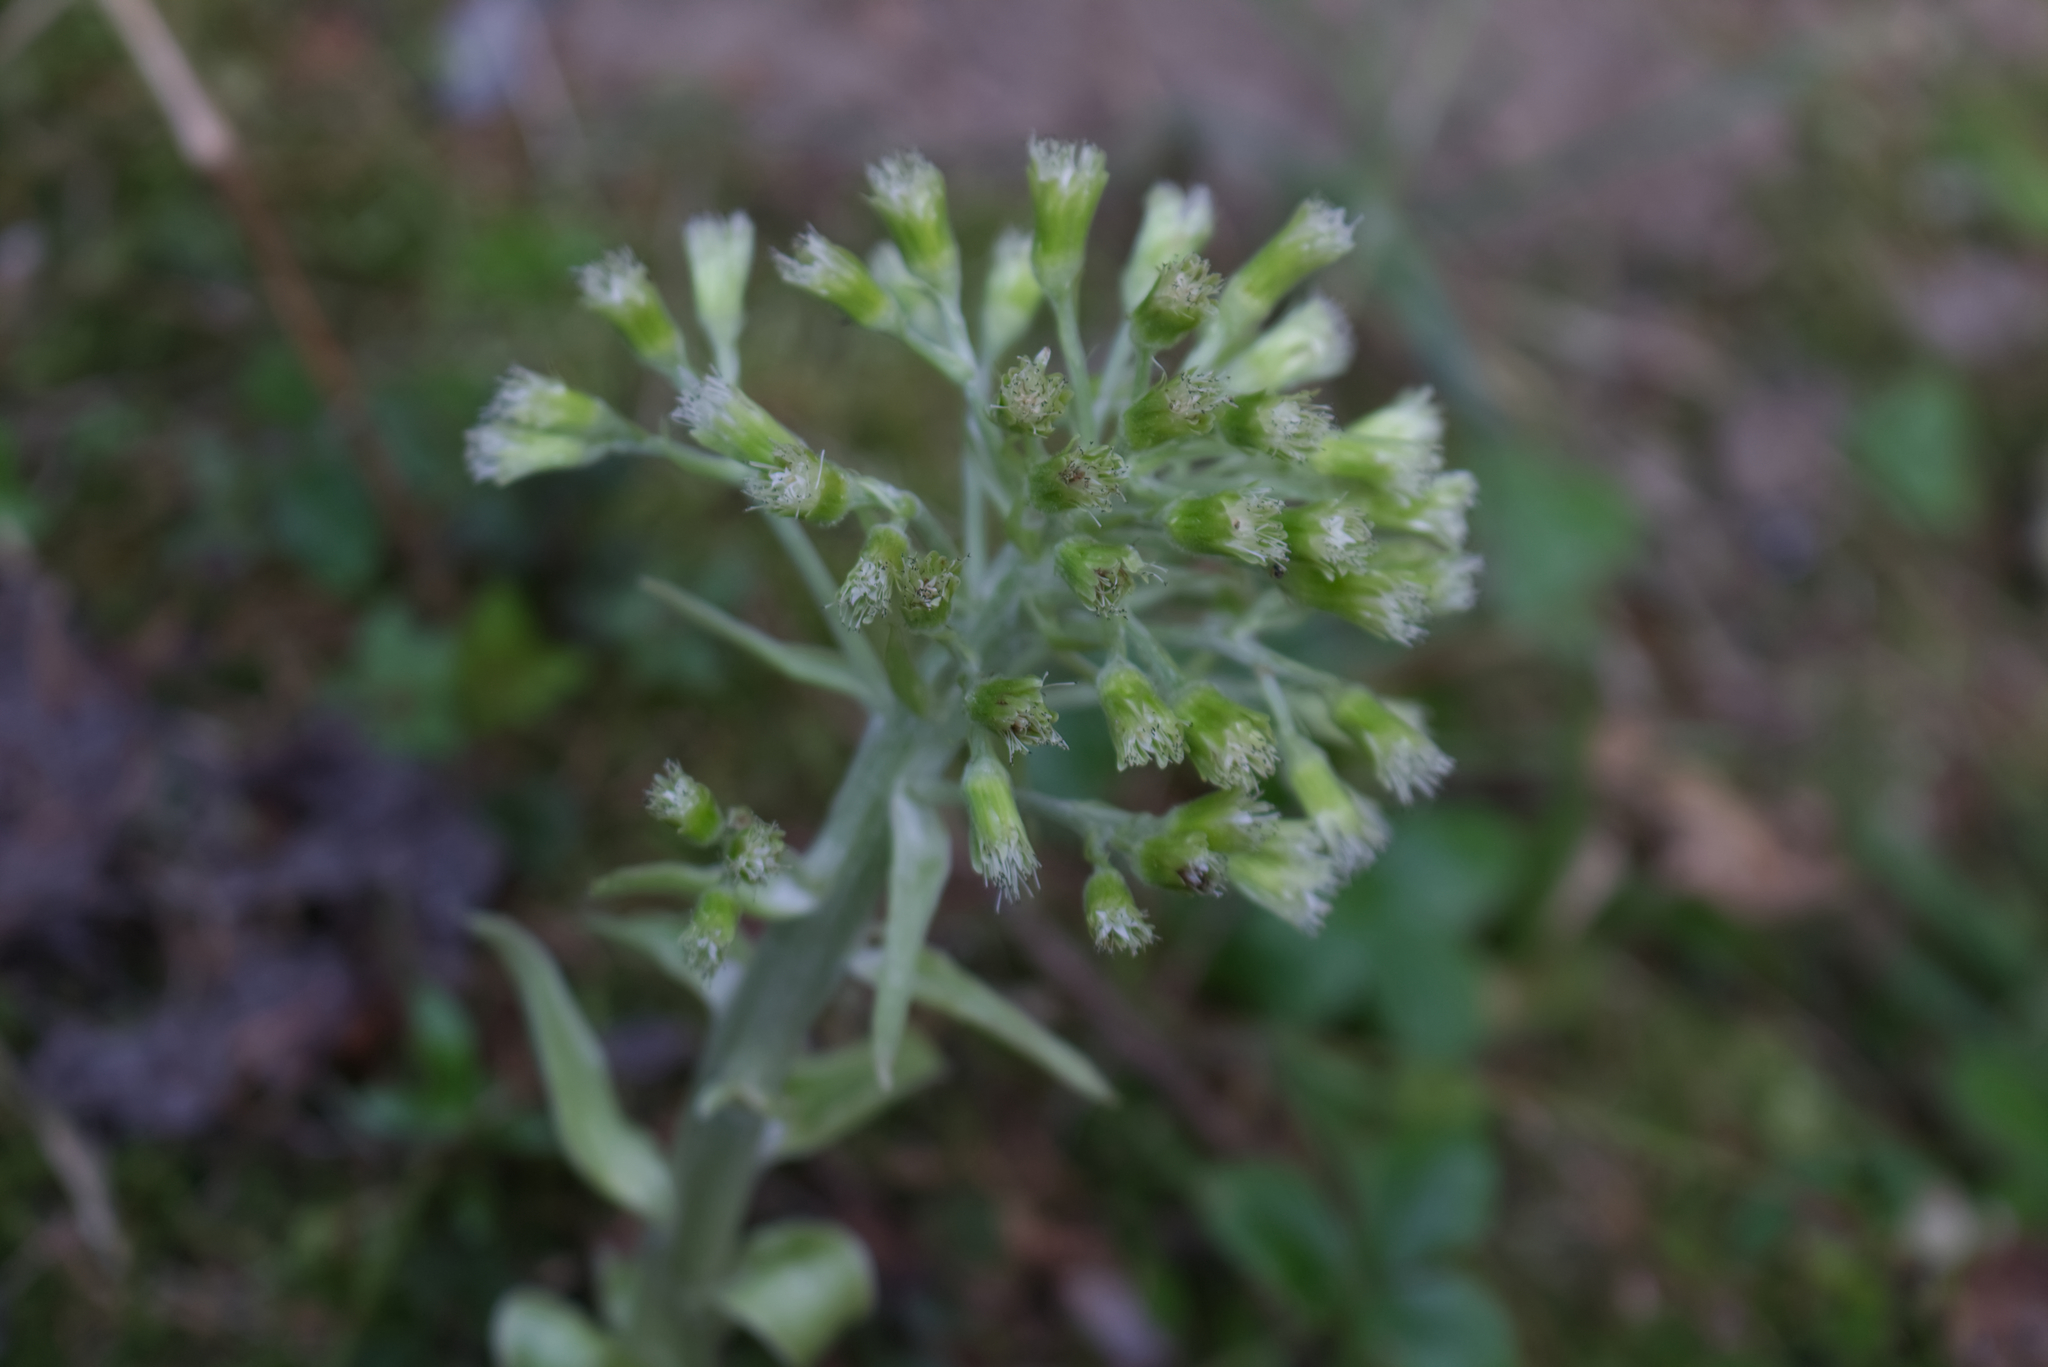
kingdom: Plantae
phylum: Tracheophyta
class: Magnoliopsida
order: Asterales
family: Asteraceae
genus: Petasites
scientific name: Petasites albus
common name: White butterbur
